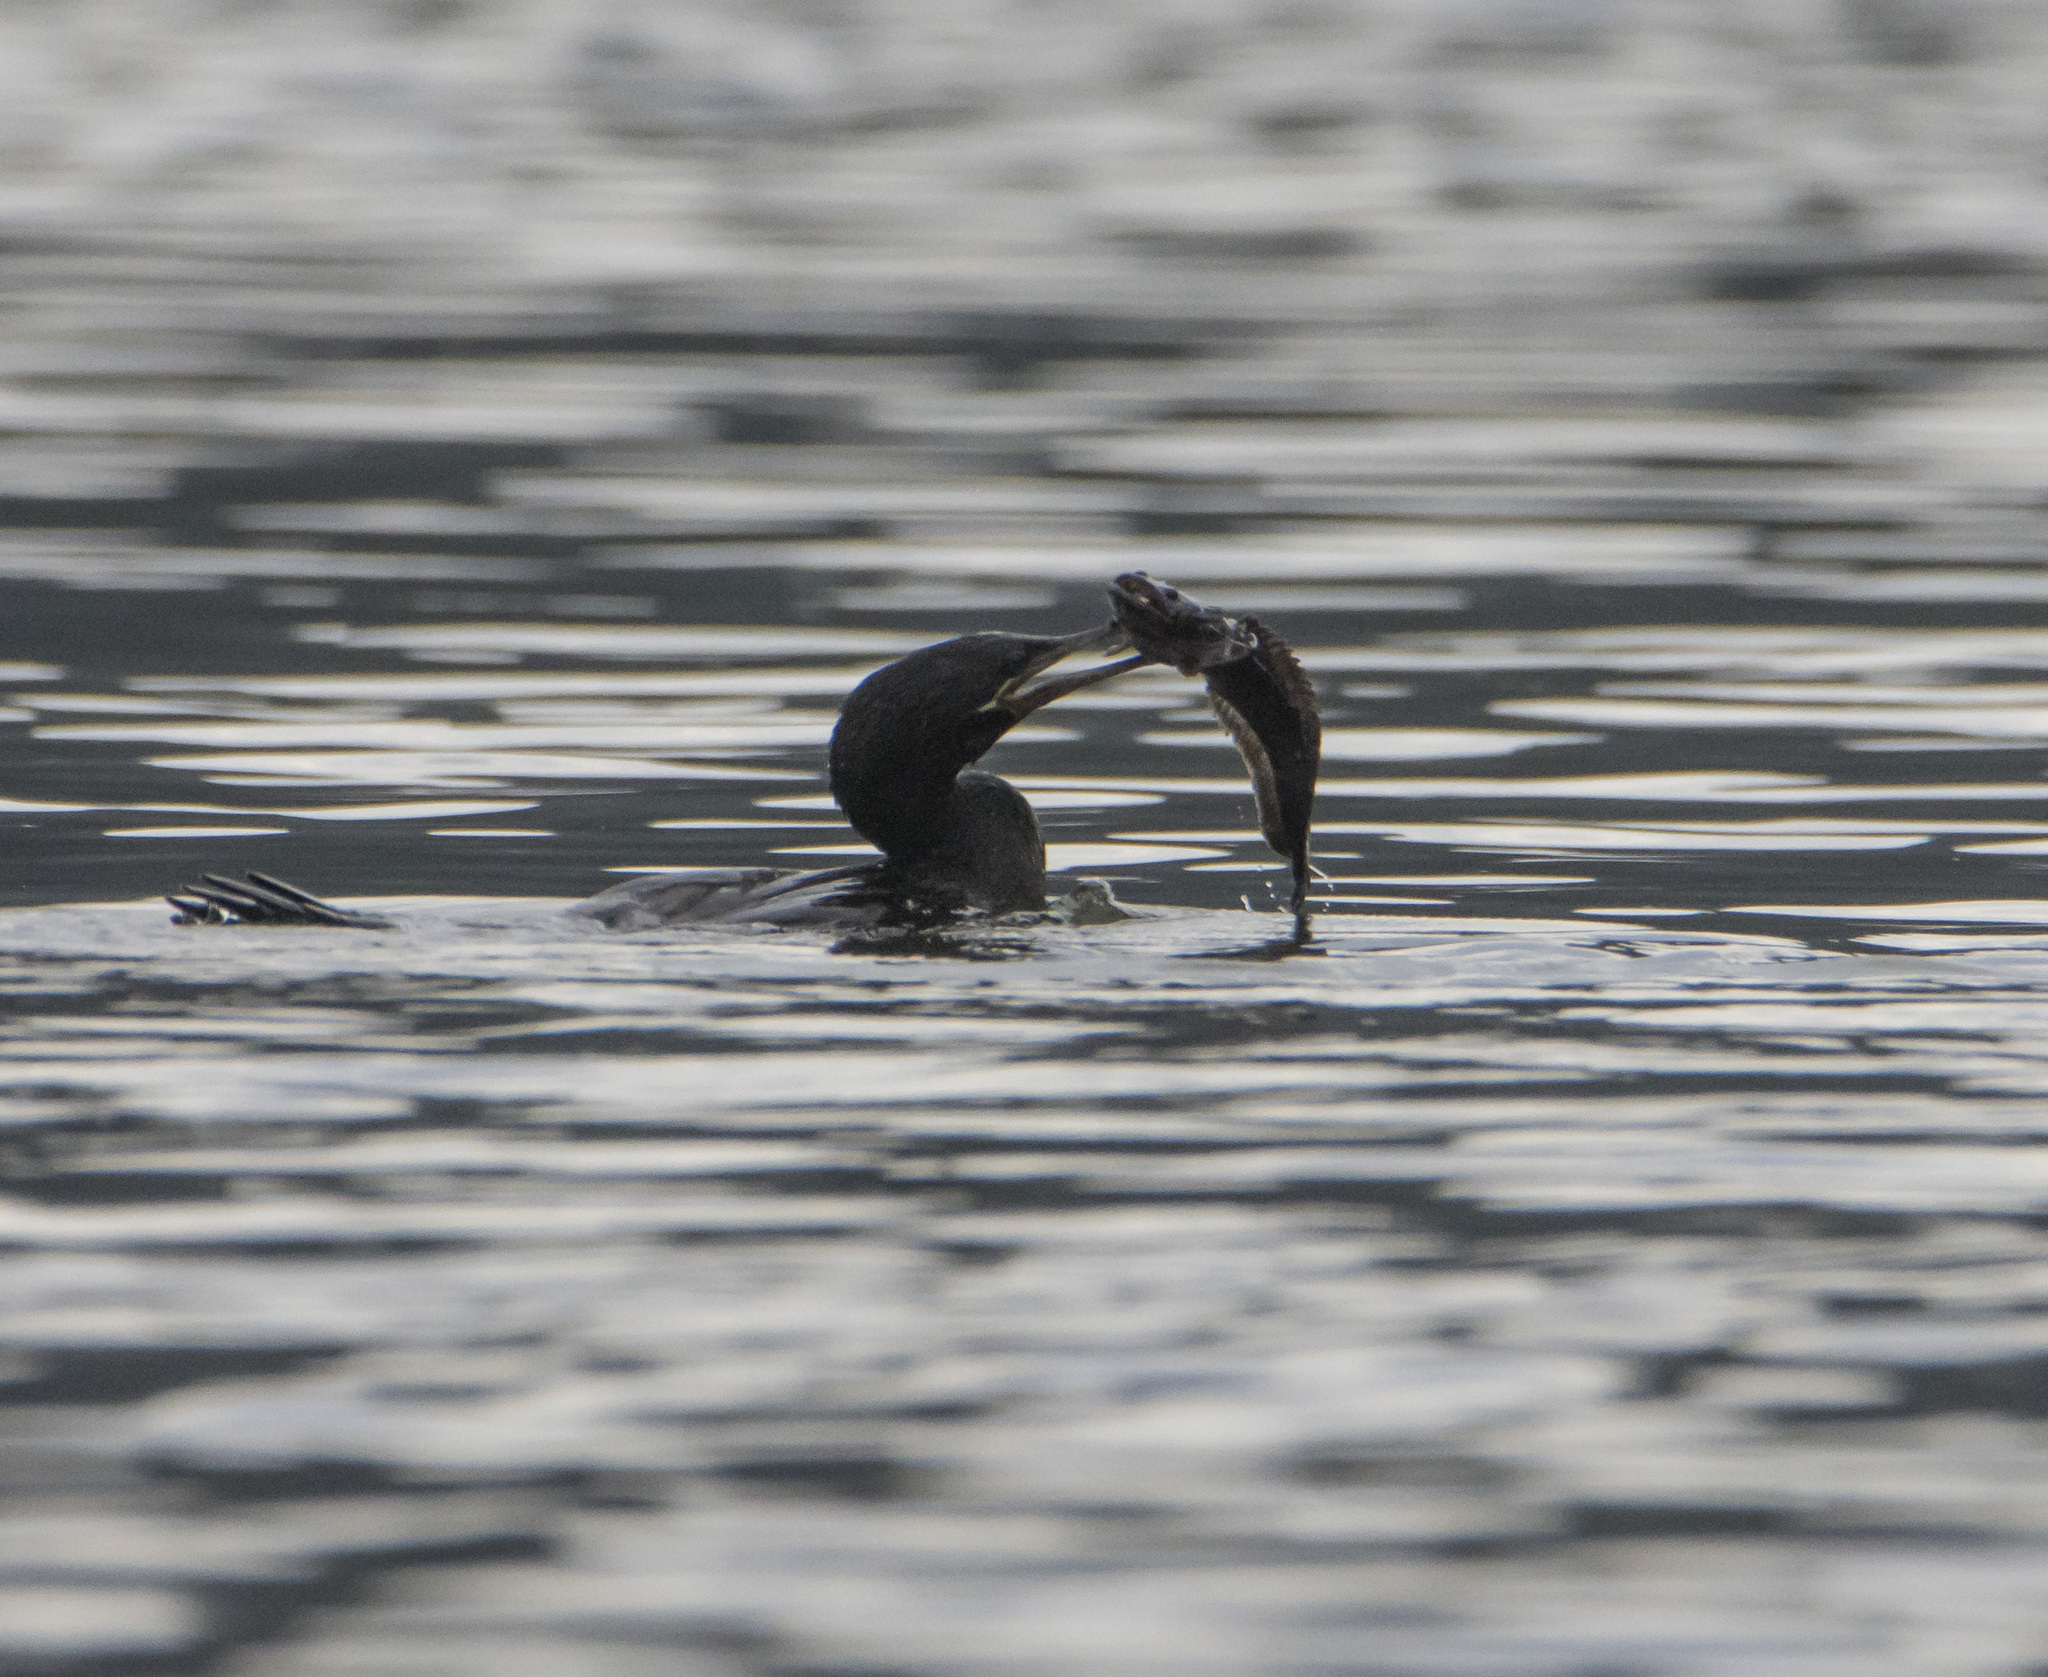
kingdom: Animalia
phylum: Chordata
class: Aves
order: Suliformes
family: Phalacrocoracidae
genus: Phalacrocorax
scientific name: Phalacrocorax brasilianus
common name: Neotropic cormorant
